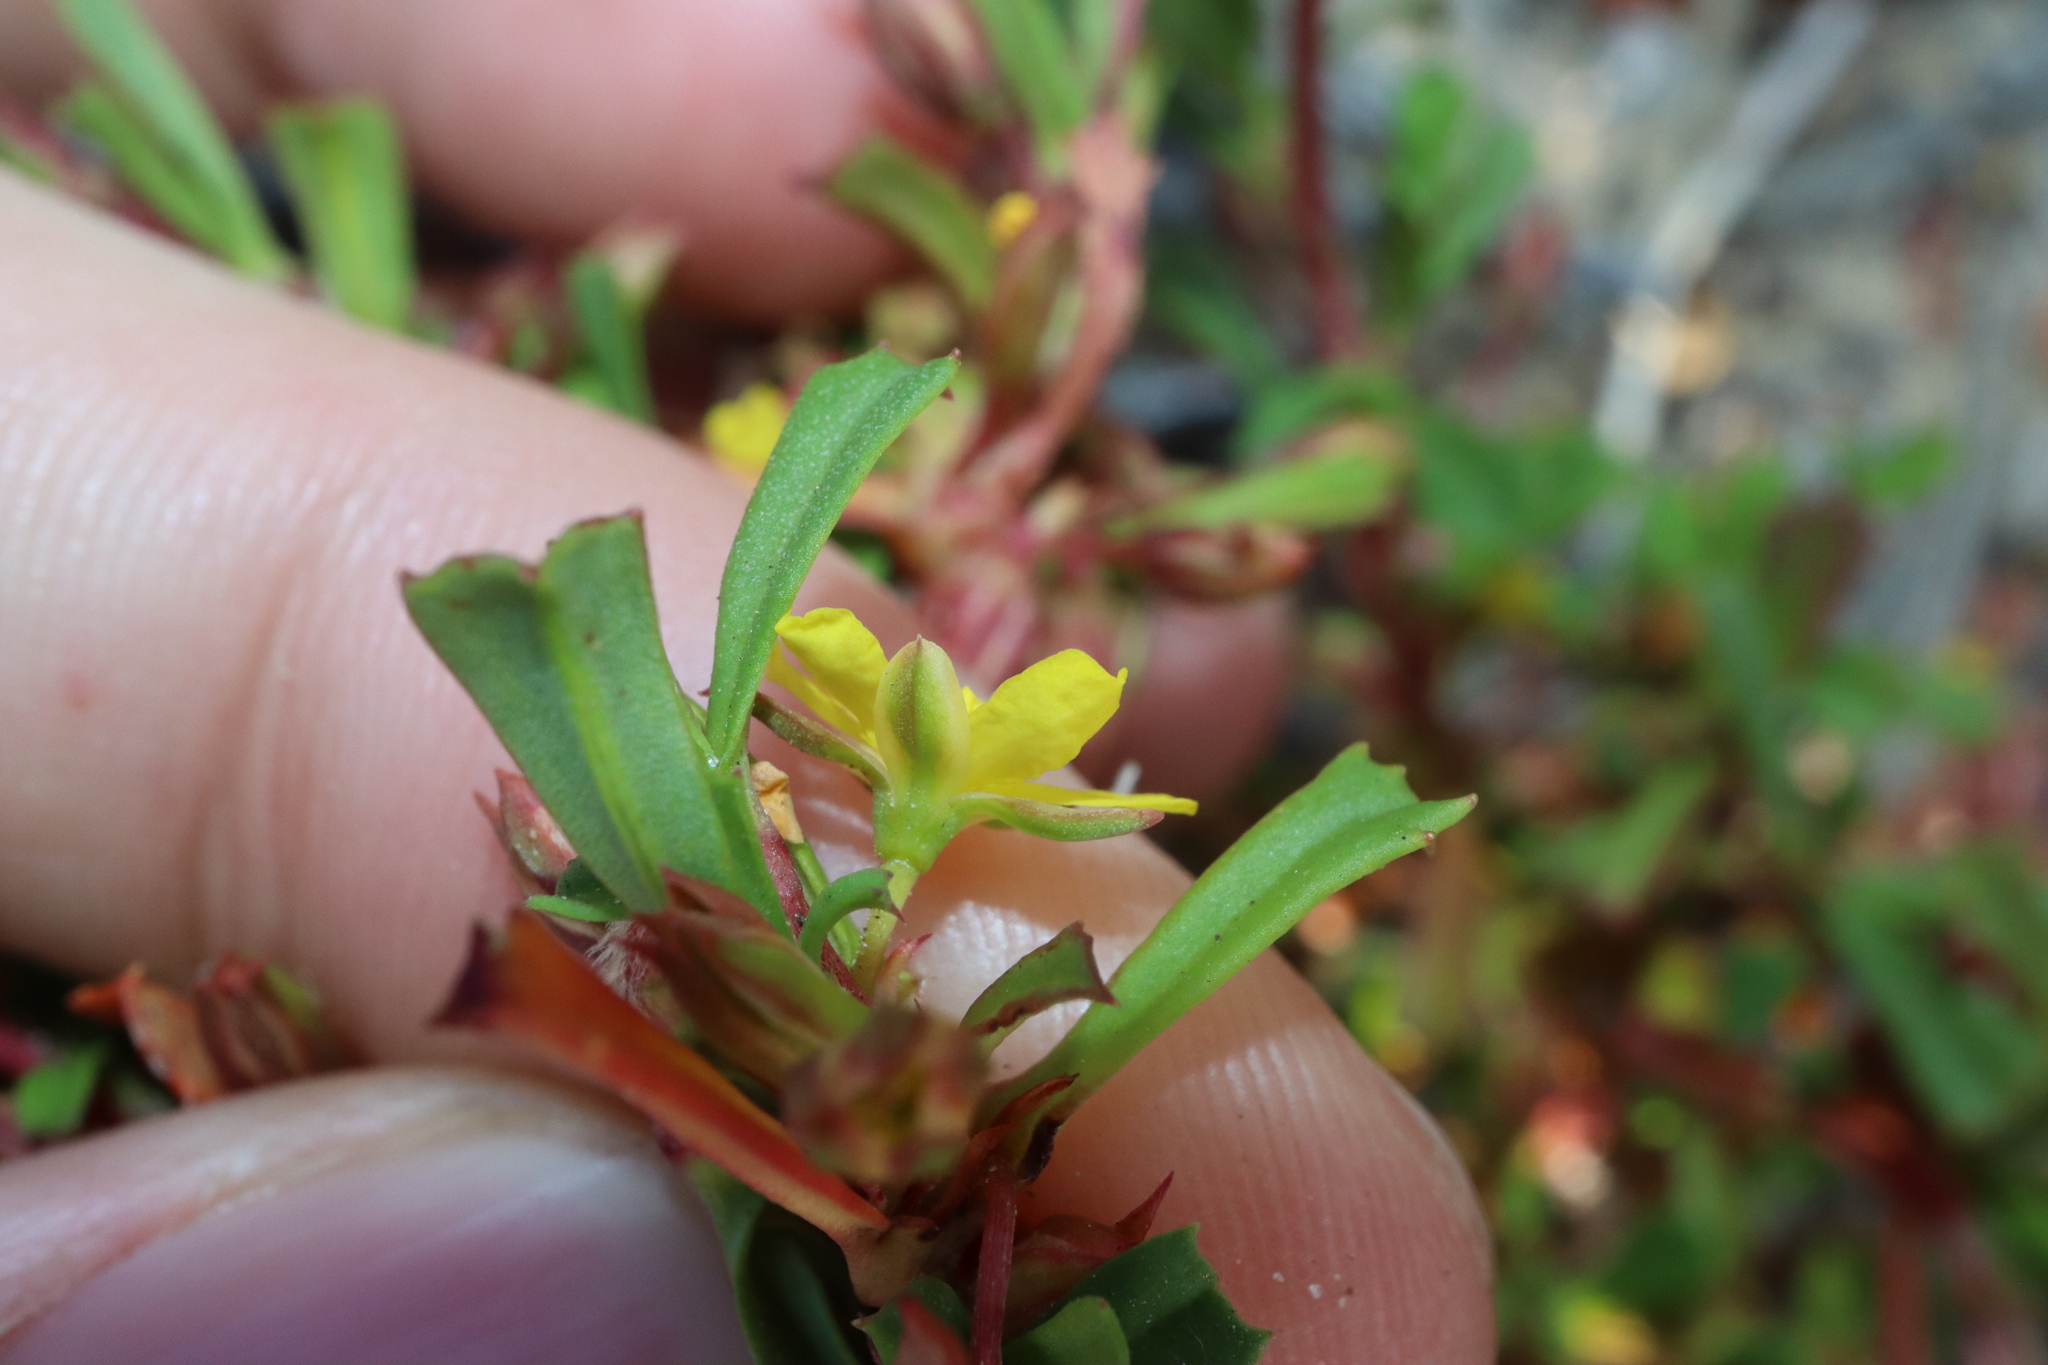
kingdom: Plantae
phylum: Tracheophyta
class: Magnoliopsida
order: Dilleniales
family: Dilleniaceae
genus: Hibbertia
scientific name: Hibbertia racemosa
